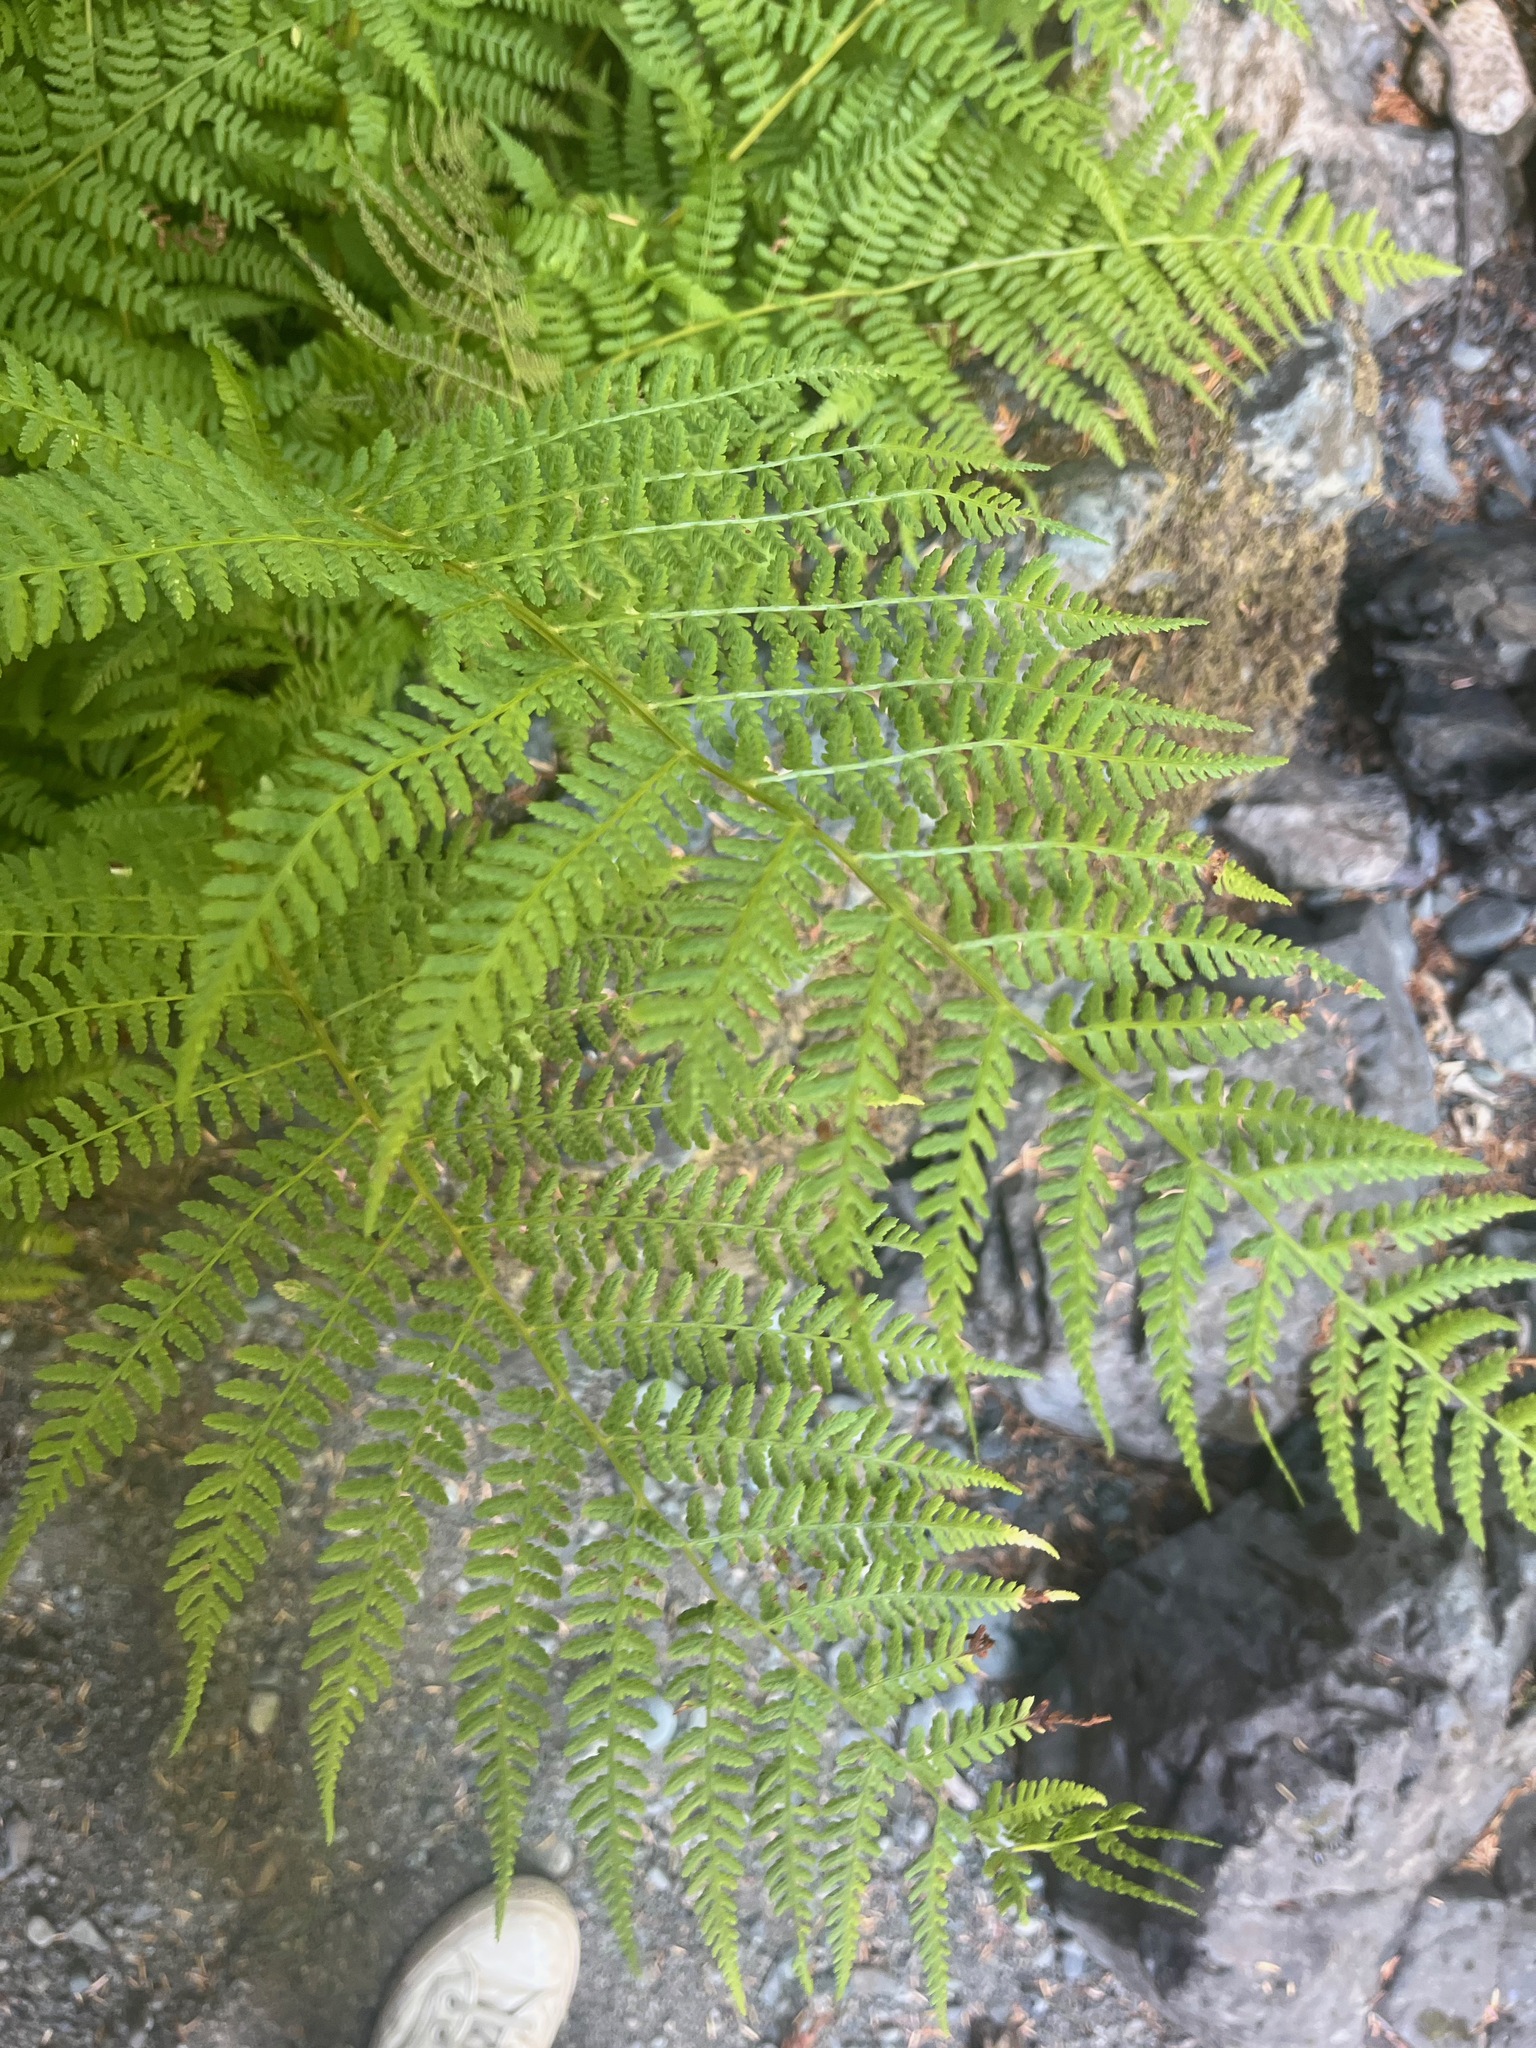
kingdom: Plantae
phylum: Tracheophyta
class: Polypodiopsida
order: Polypodiales
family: Athyriaceae
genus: Athyrium
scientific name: Athyrium filix-femina
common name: Lady fern
